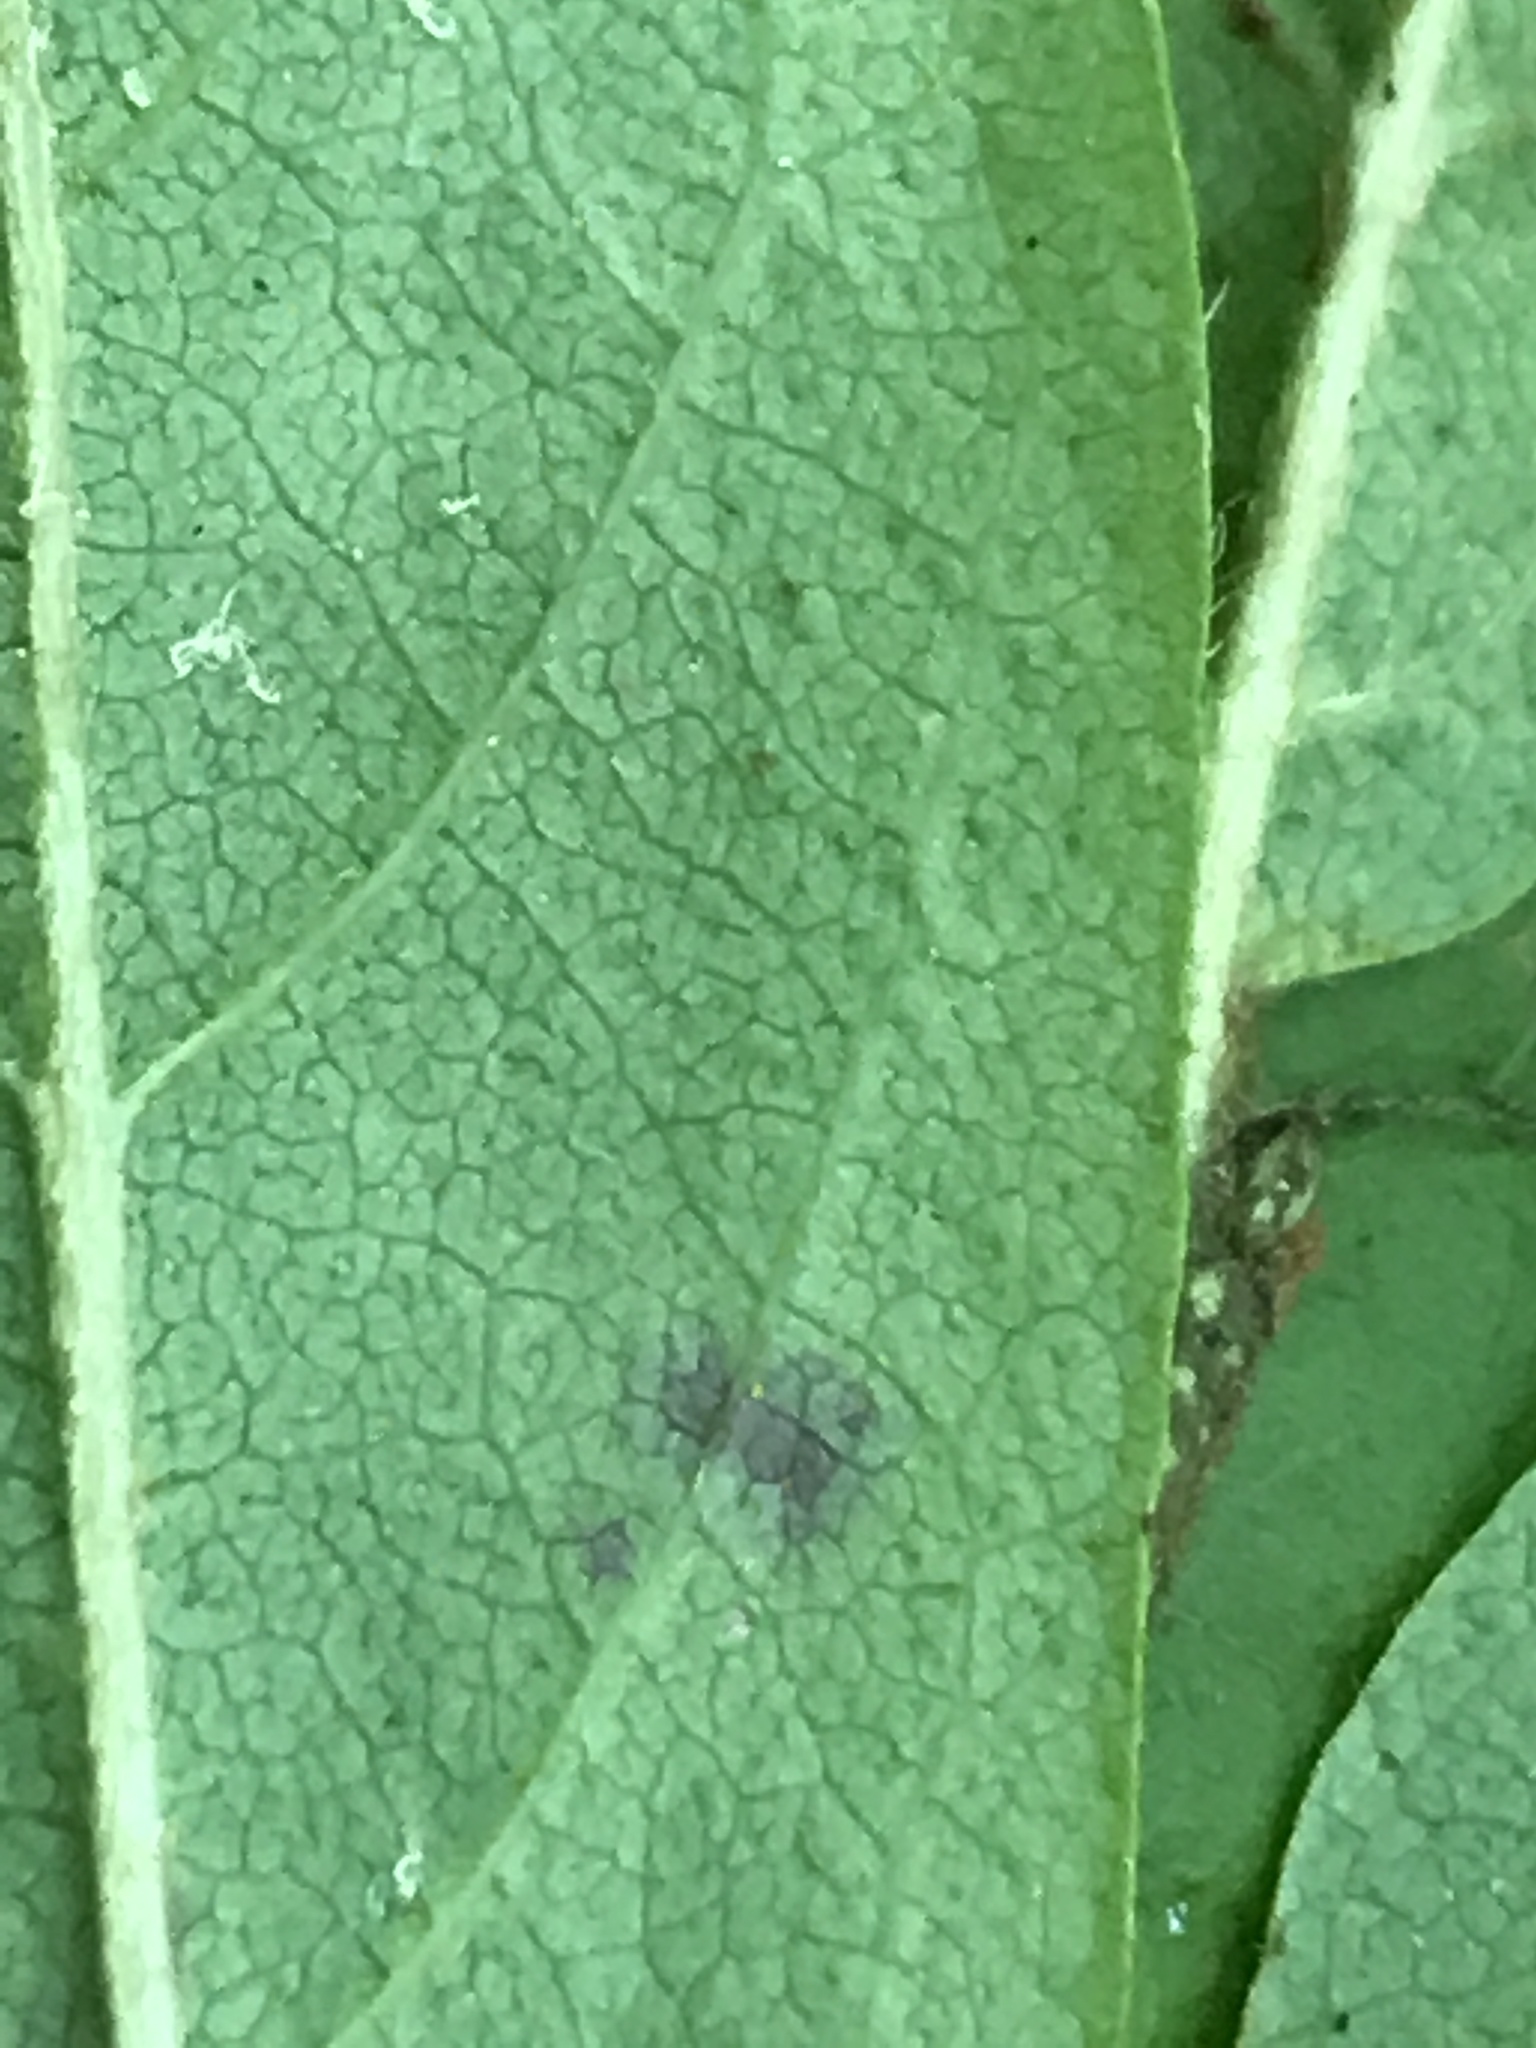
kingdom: Plantae
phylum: Tracheophyta
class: Magnoliopsida
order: Ericales
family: Ericaceae
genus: Gaylussacia
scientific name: Gaylussacia ursina
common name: Bear huckleberry
